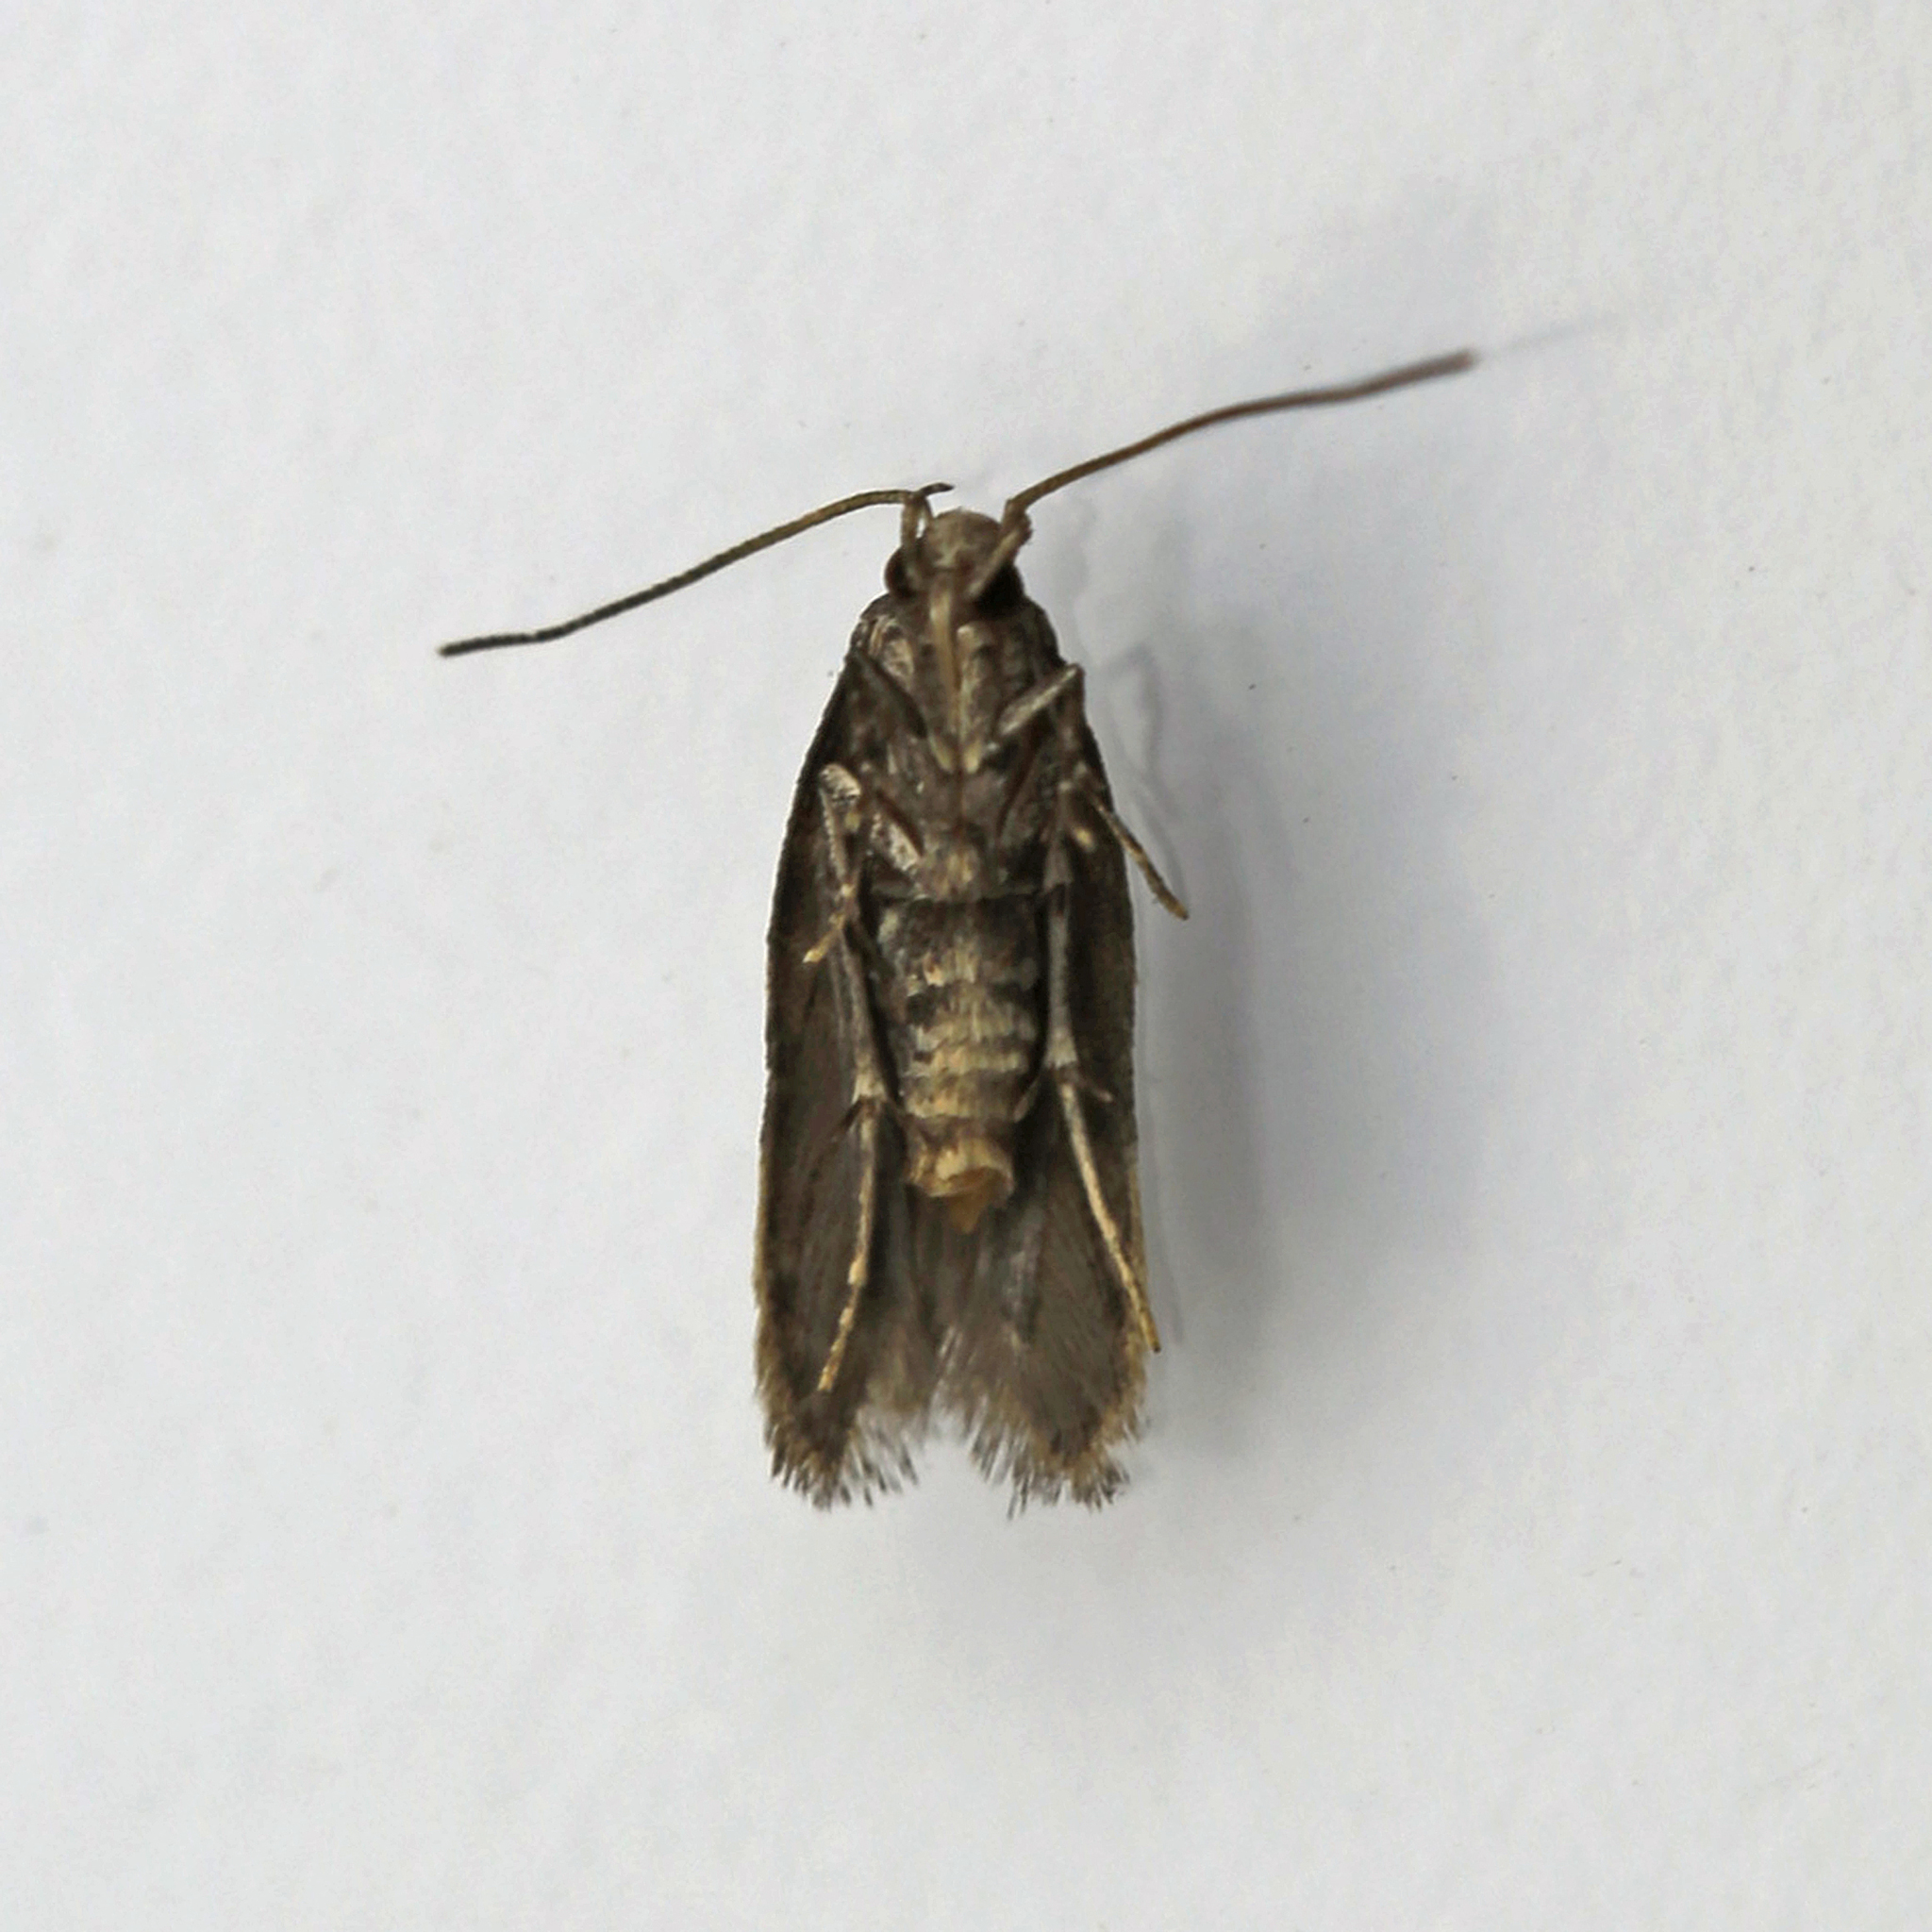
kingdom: Animalia
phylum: Arthropoda
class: Insecta
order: Lepidoptera
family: Autostichidae
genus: Taygete
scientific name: Taygete attributella
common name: Triangle-marked twirler moth
